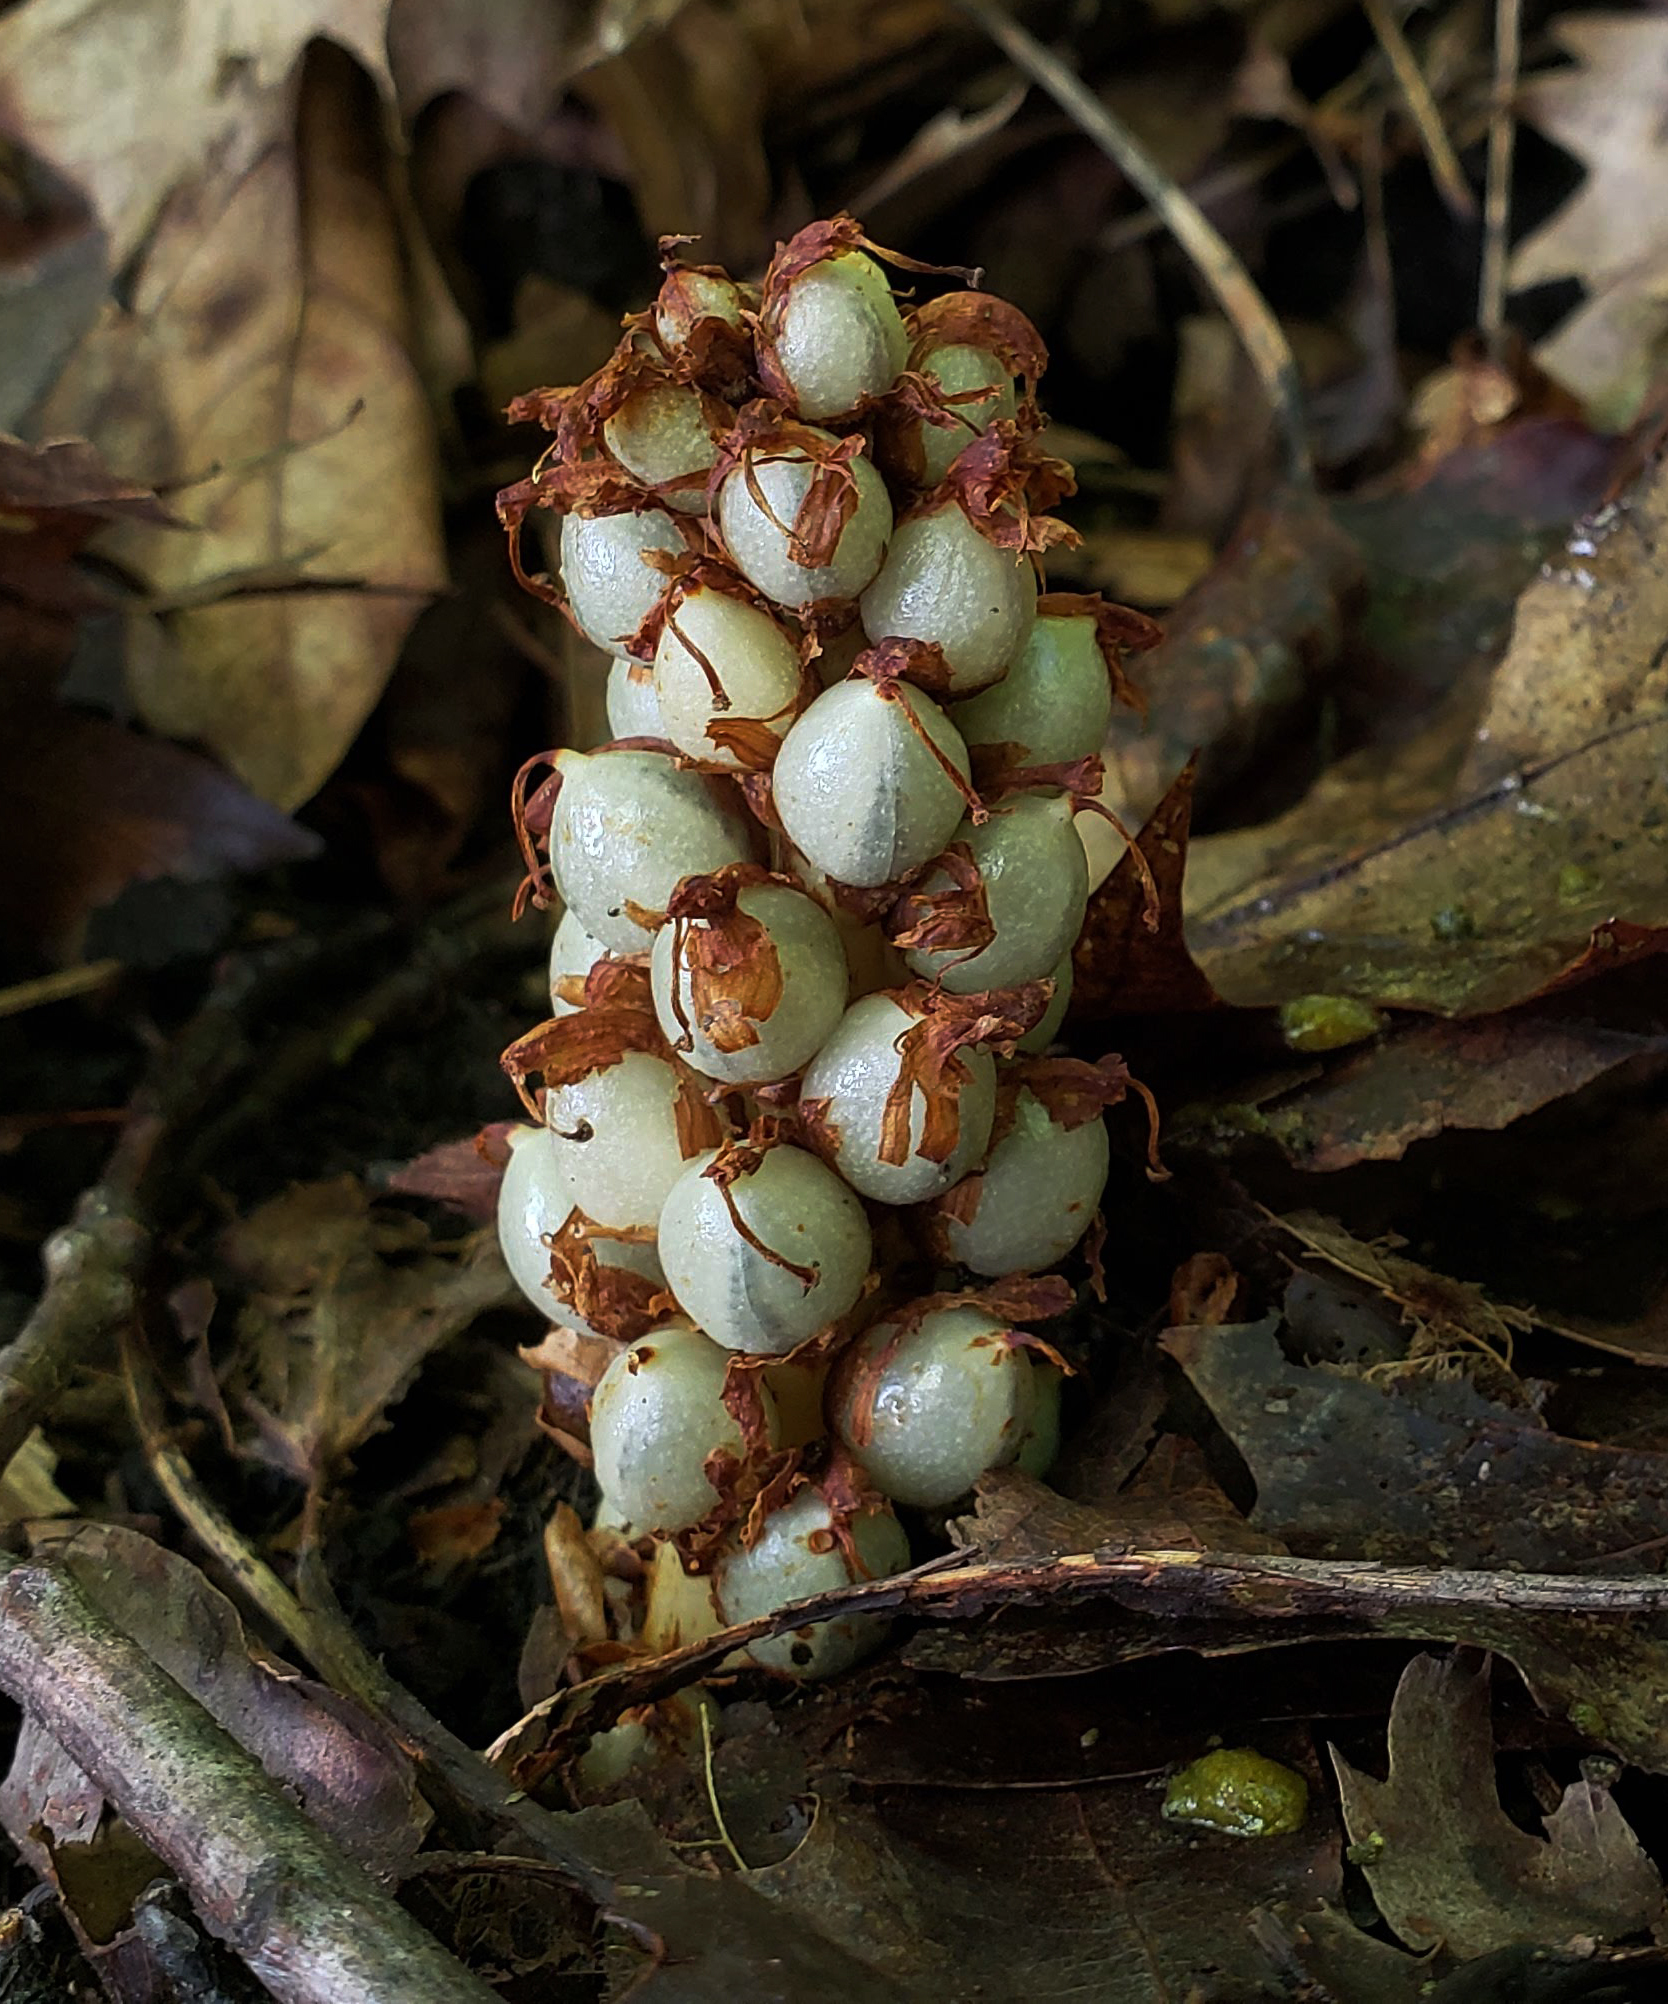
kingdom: Plantae
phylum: Tracheophyta
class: Magnoliopsida
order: Lamiales
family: Orobanchaceae
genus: Conopholis
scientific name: Conopholis americana
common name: American cancer-root
